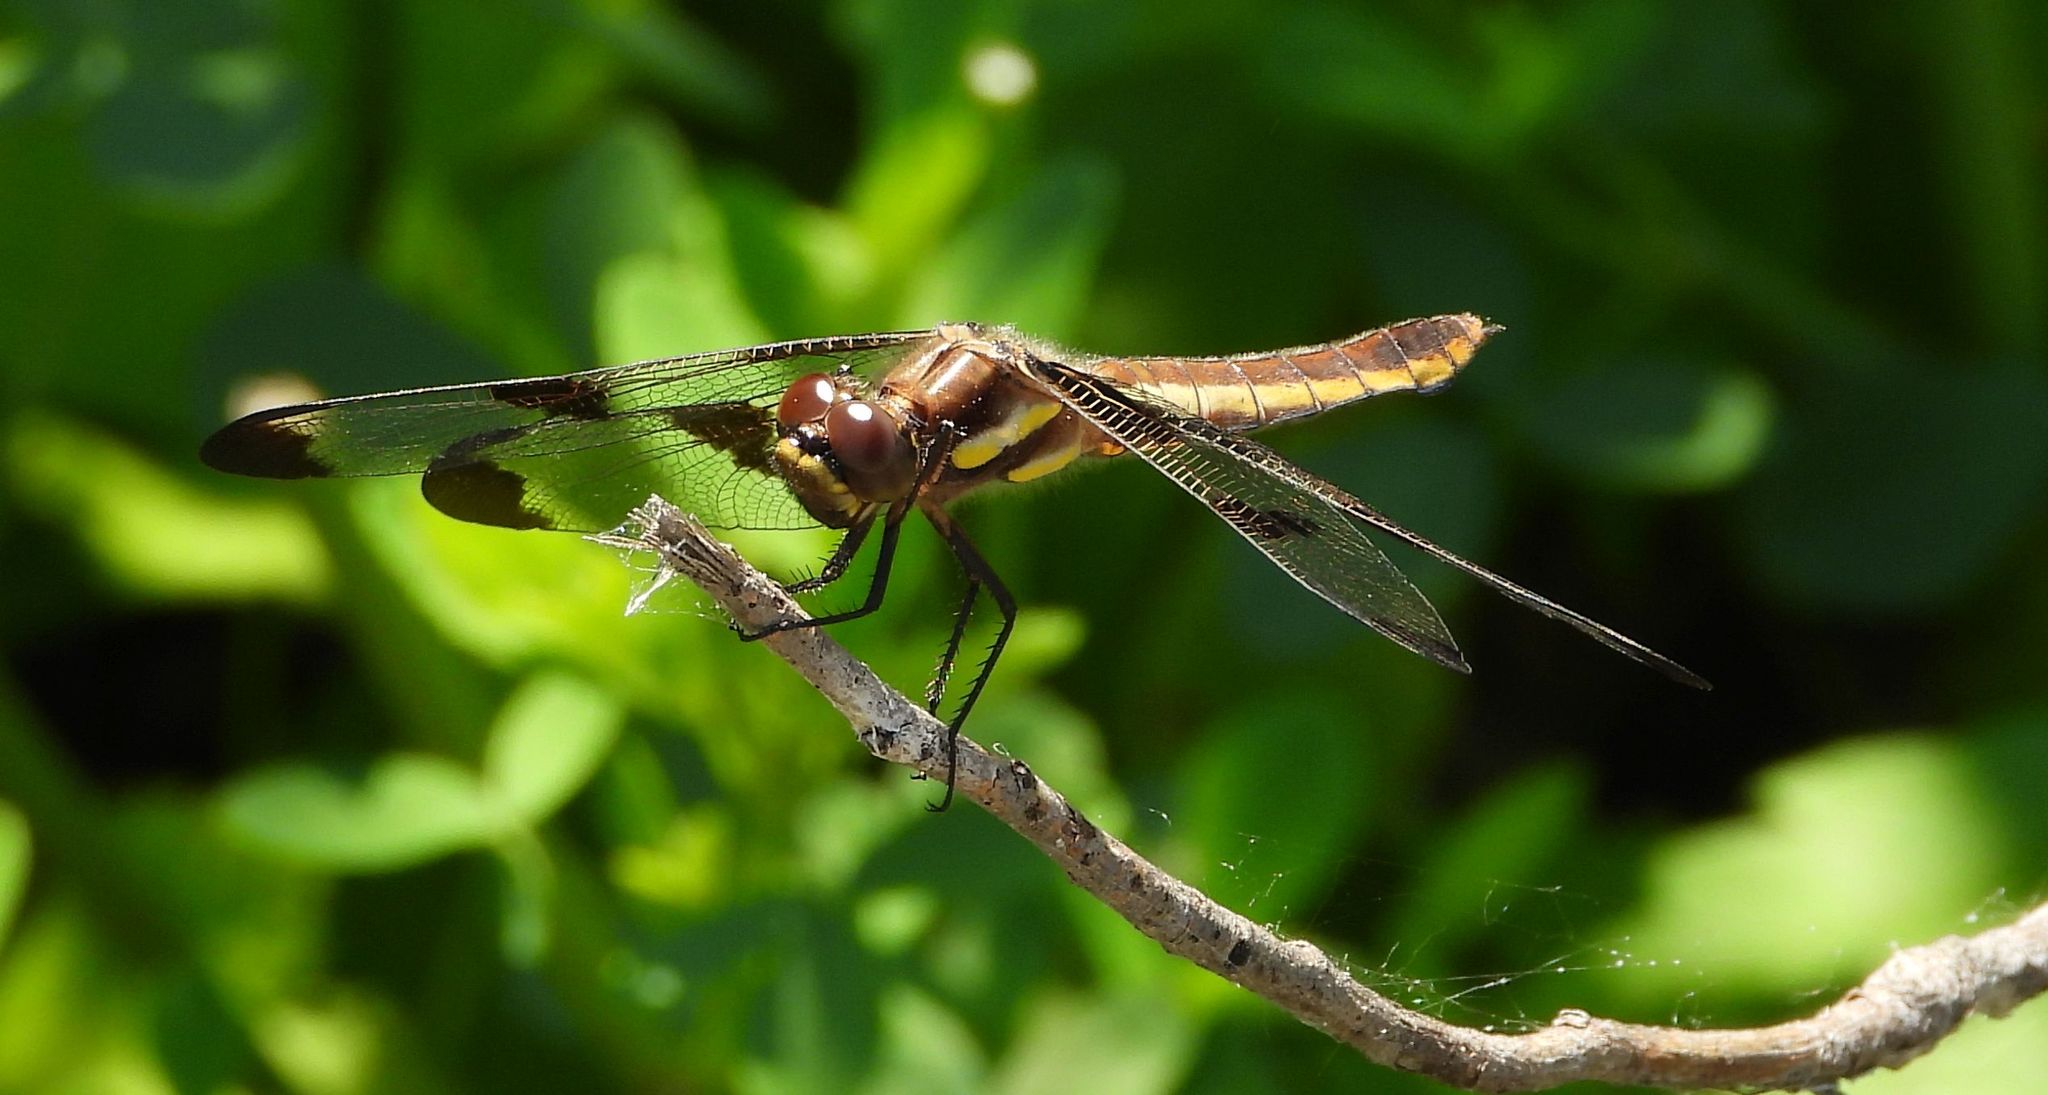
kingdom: Animalia
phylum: Arthropoda
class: Insecta
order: Odonata
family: Libellulidae
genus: Libellula
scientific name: Libellula pulchella
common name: Twelve-spotted skimmer
